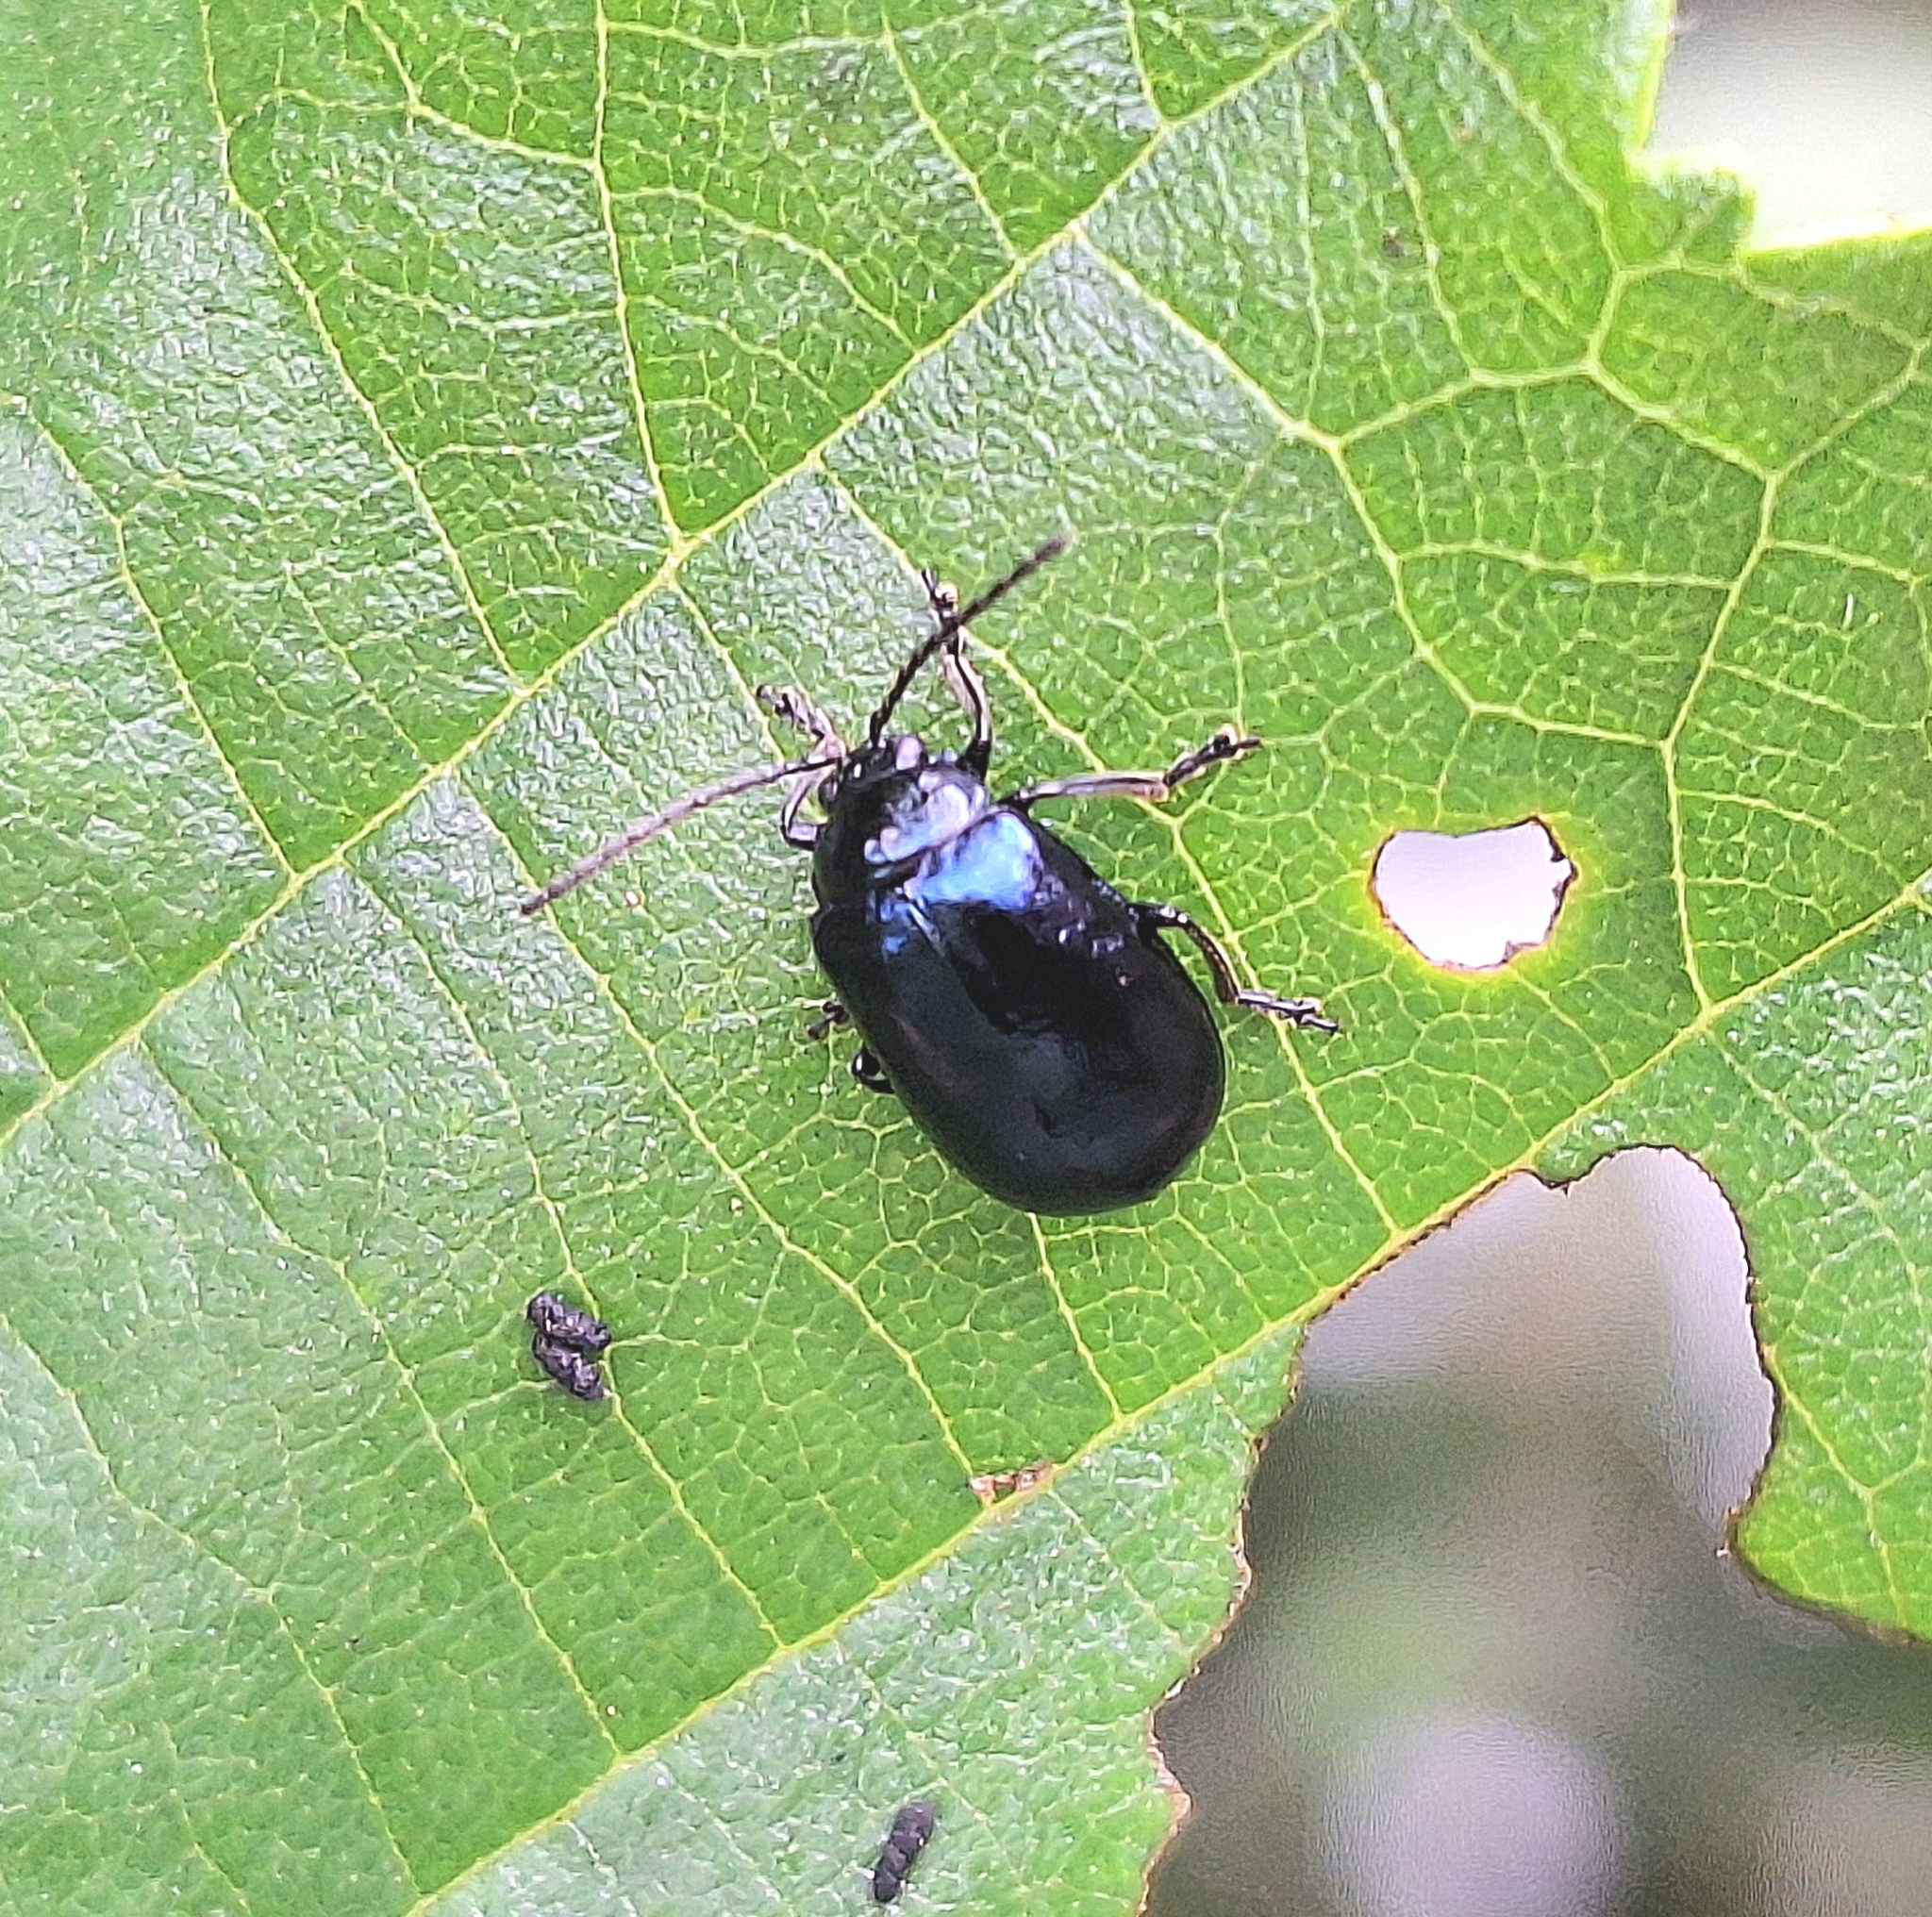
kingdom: Animalia
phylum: Arthropoda
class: Insecta
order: Coleoptera
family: Chrysomelidae
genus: Agelastica
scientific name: Agelastica alni
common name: Alder leaf beetle
